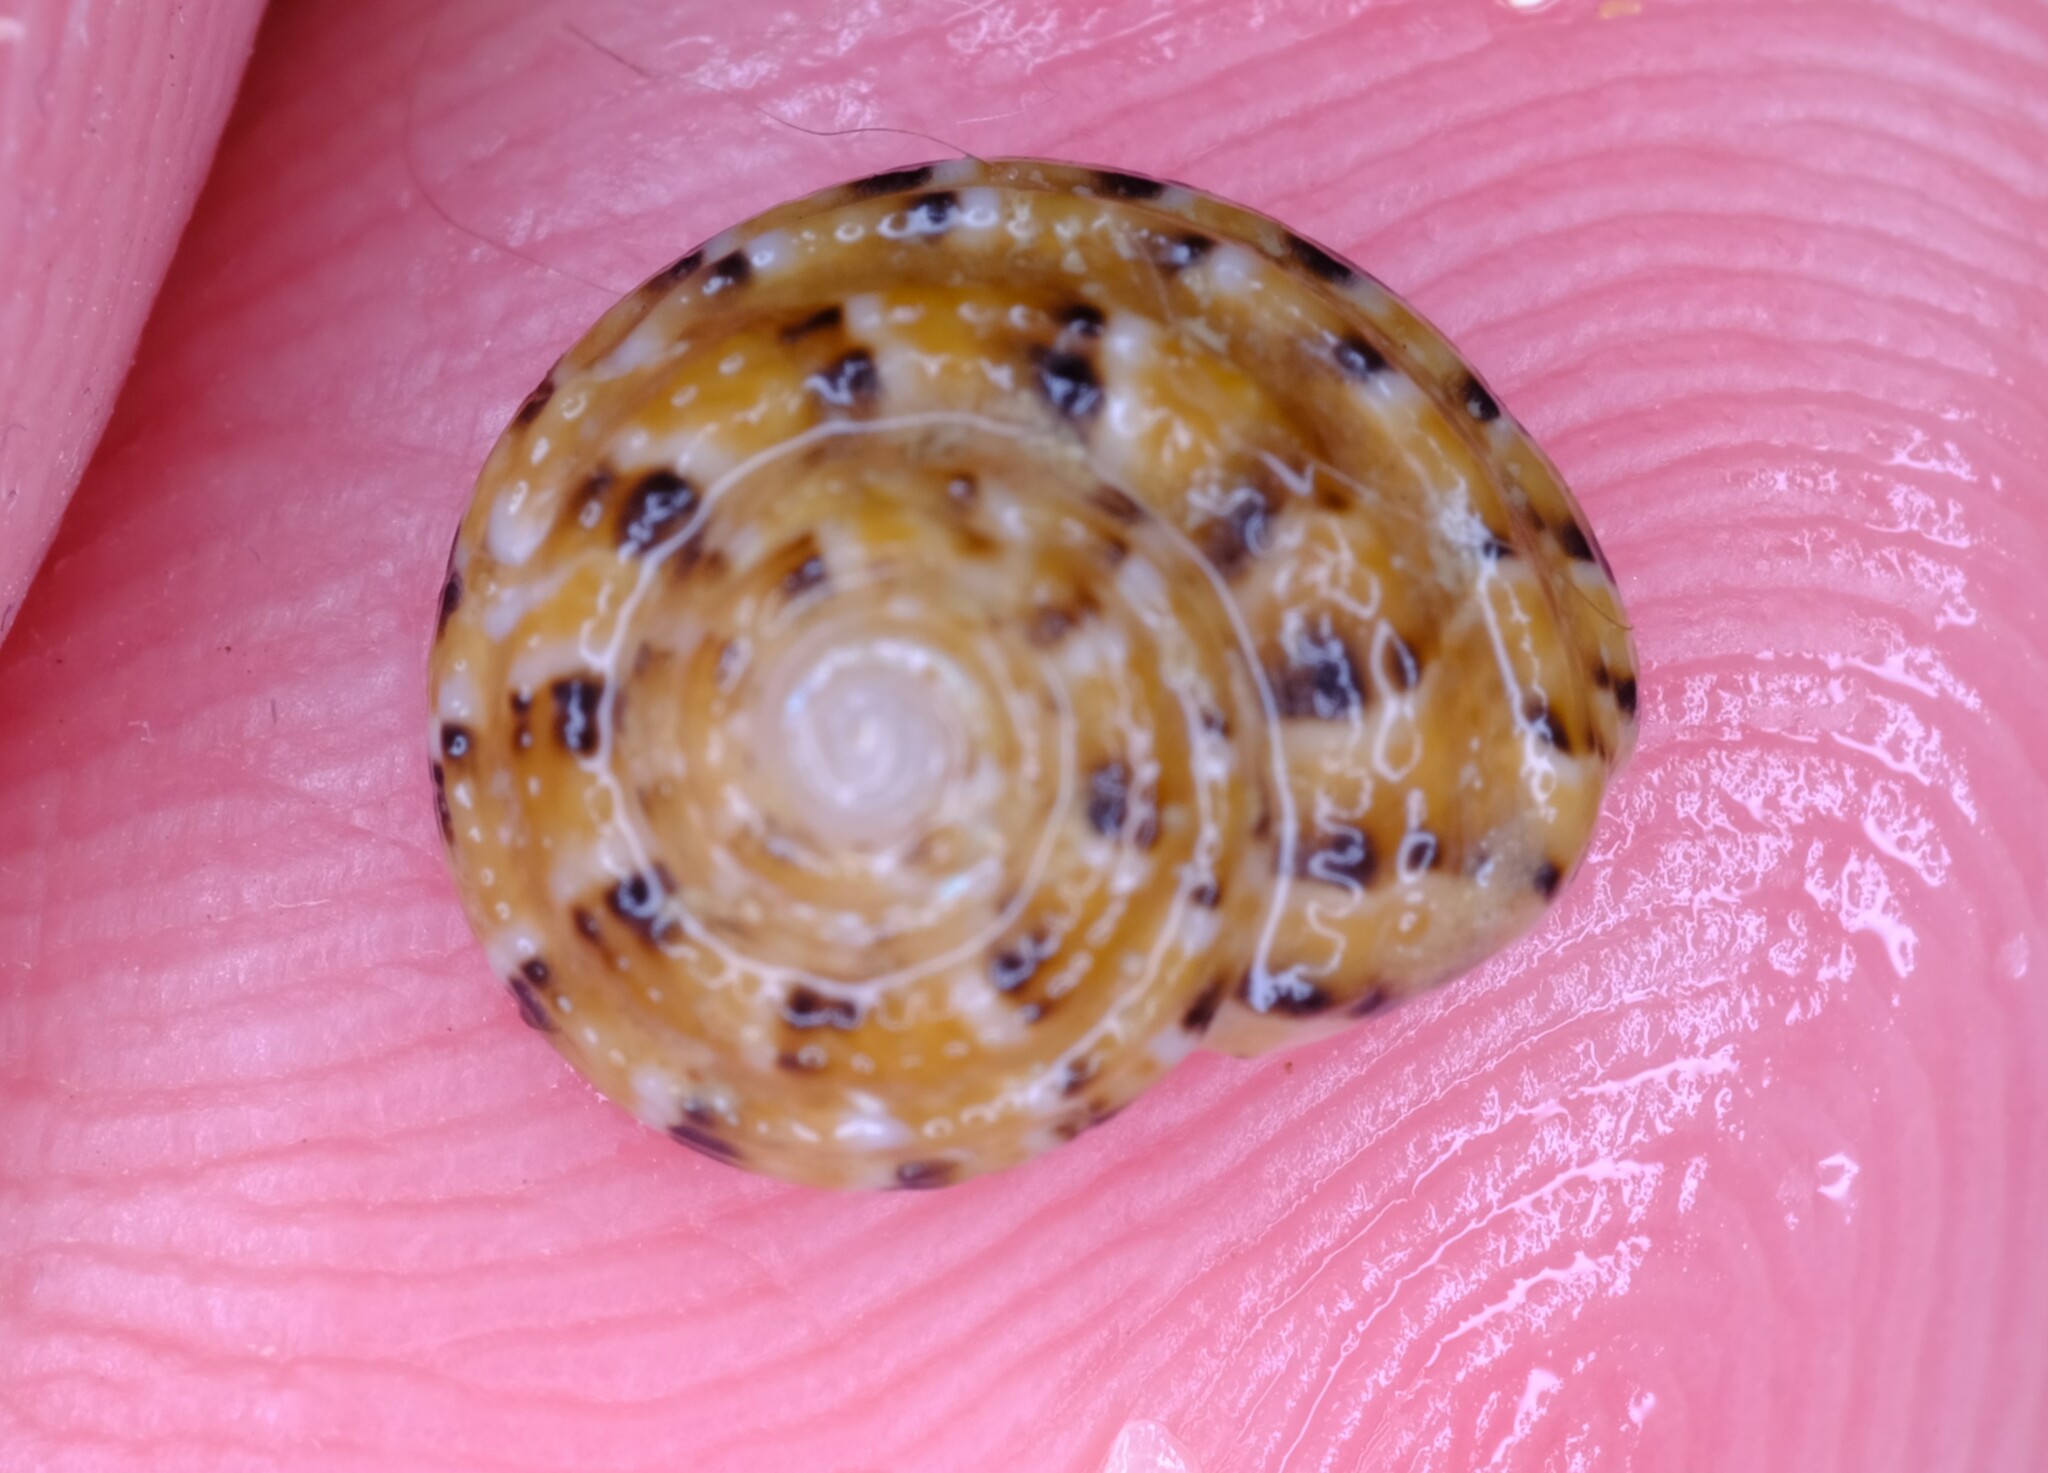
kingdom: Animalia
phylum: Mollusca
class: Gastropoda
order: Trochida
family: Trochidae
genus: Clanculus
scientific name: Clanculus plebejus
